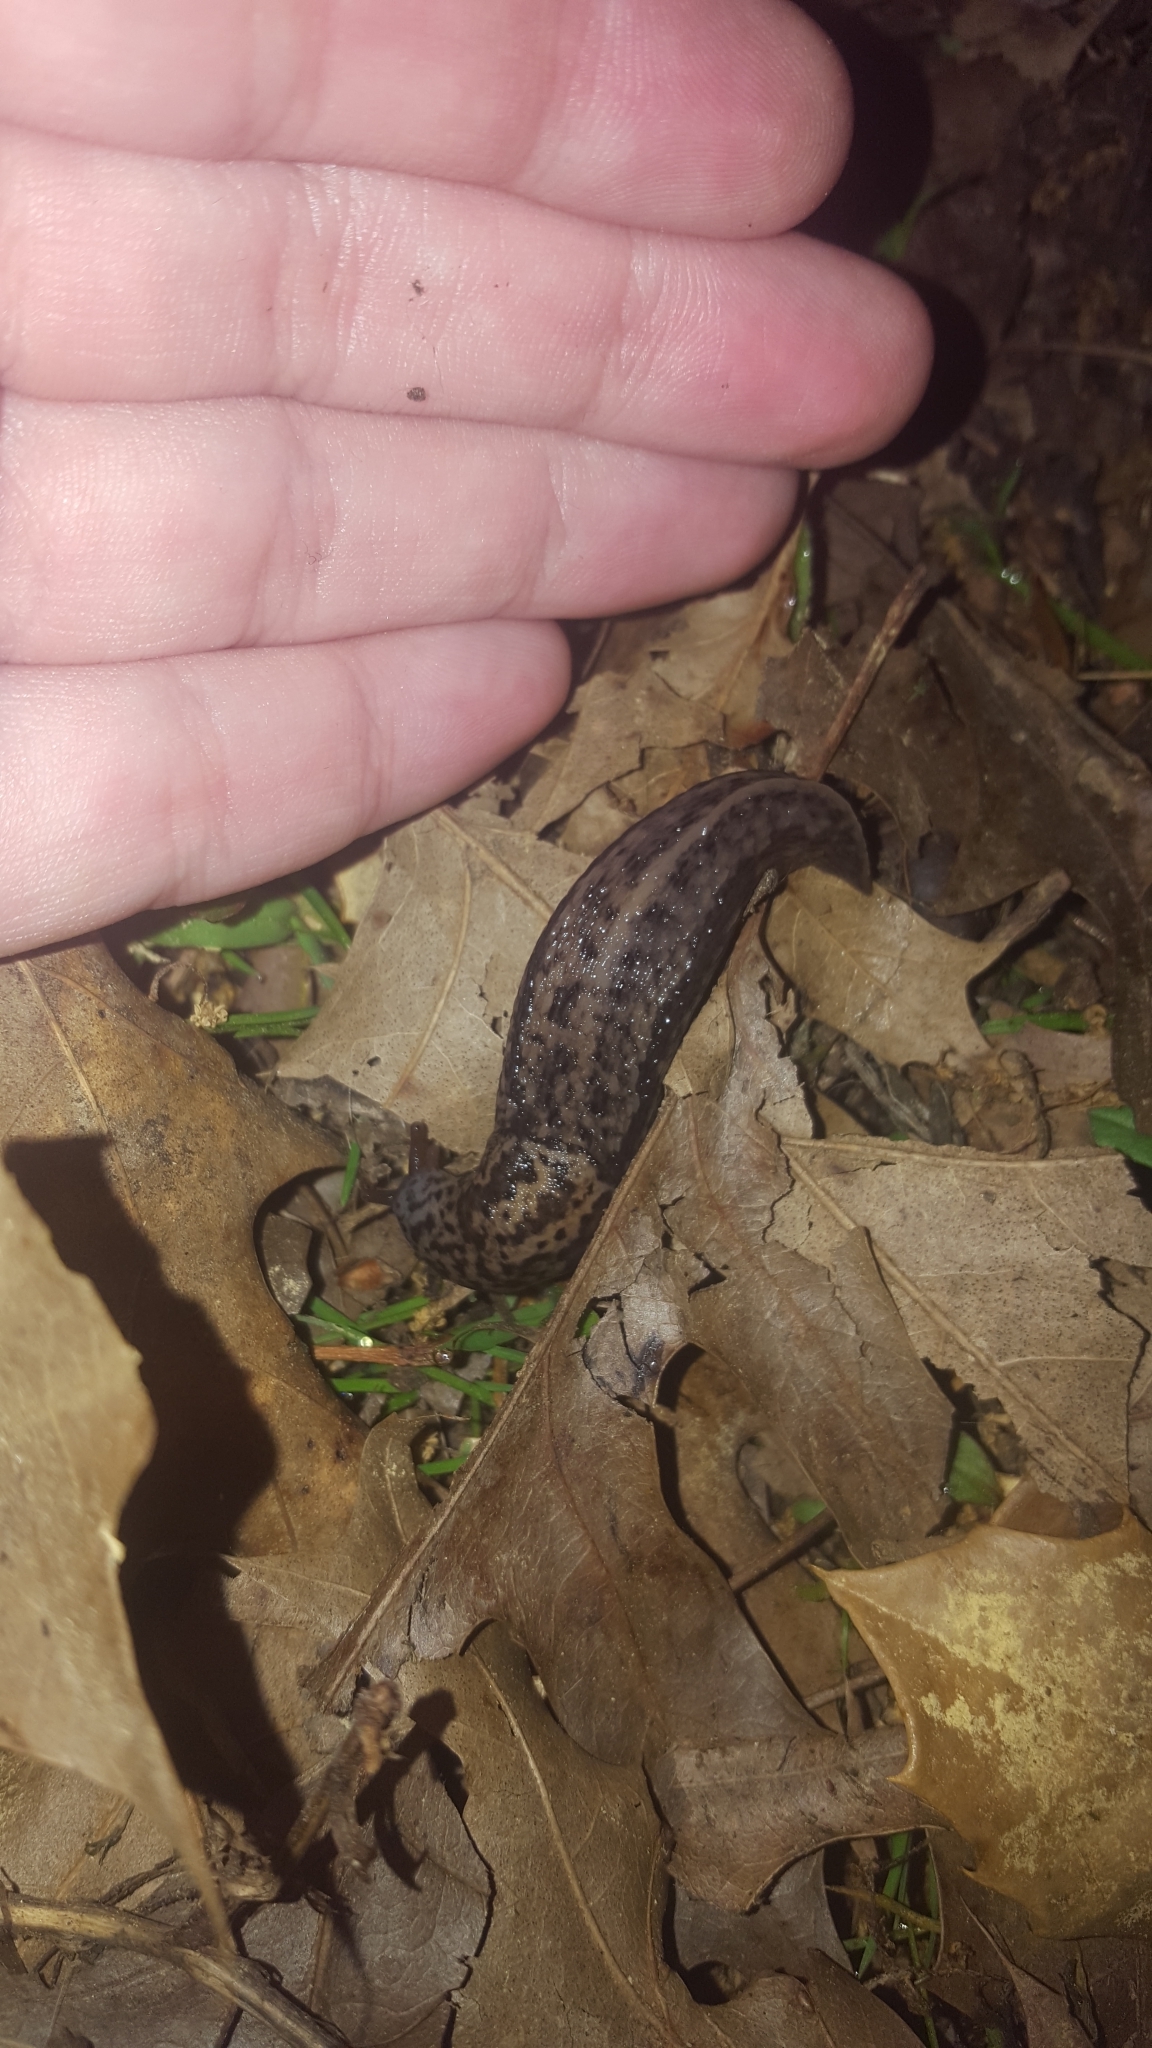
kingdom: Animalia
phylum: Mollusca
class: Gastropoda
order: Stylommatophora
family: Limacidae
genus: Limax
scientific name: Limax maximus
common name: Great grey slug
